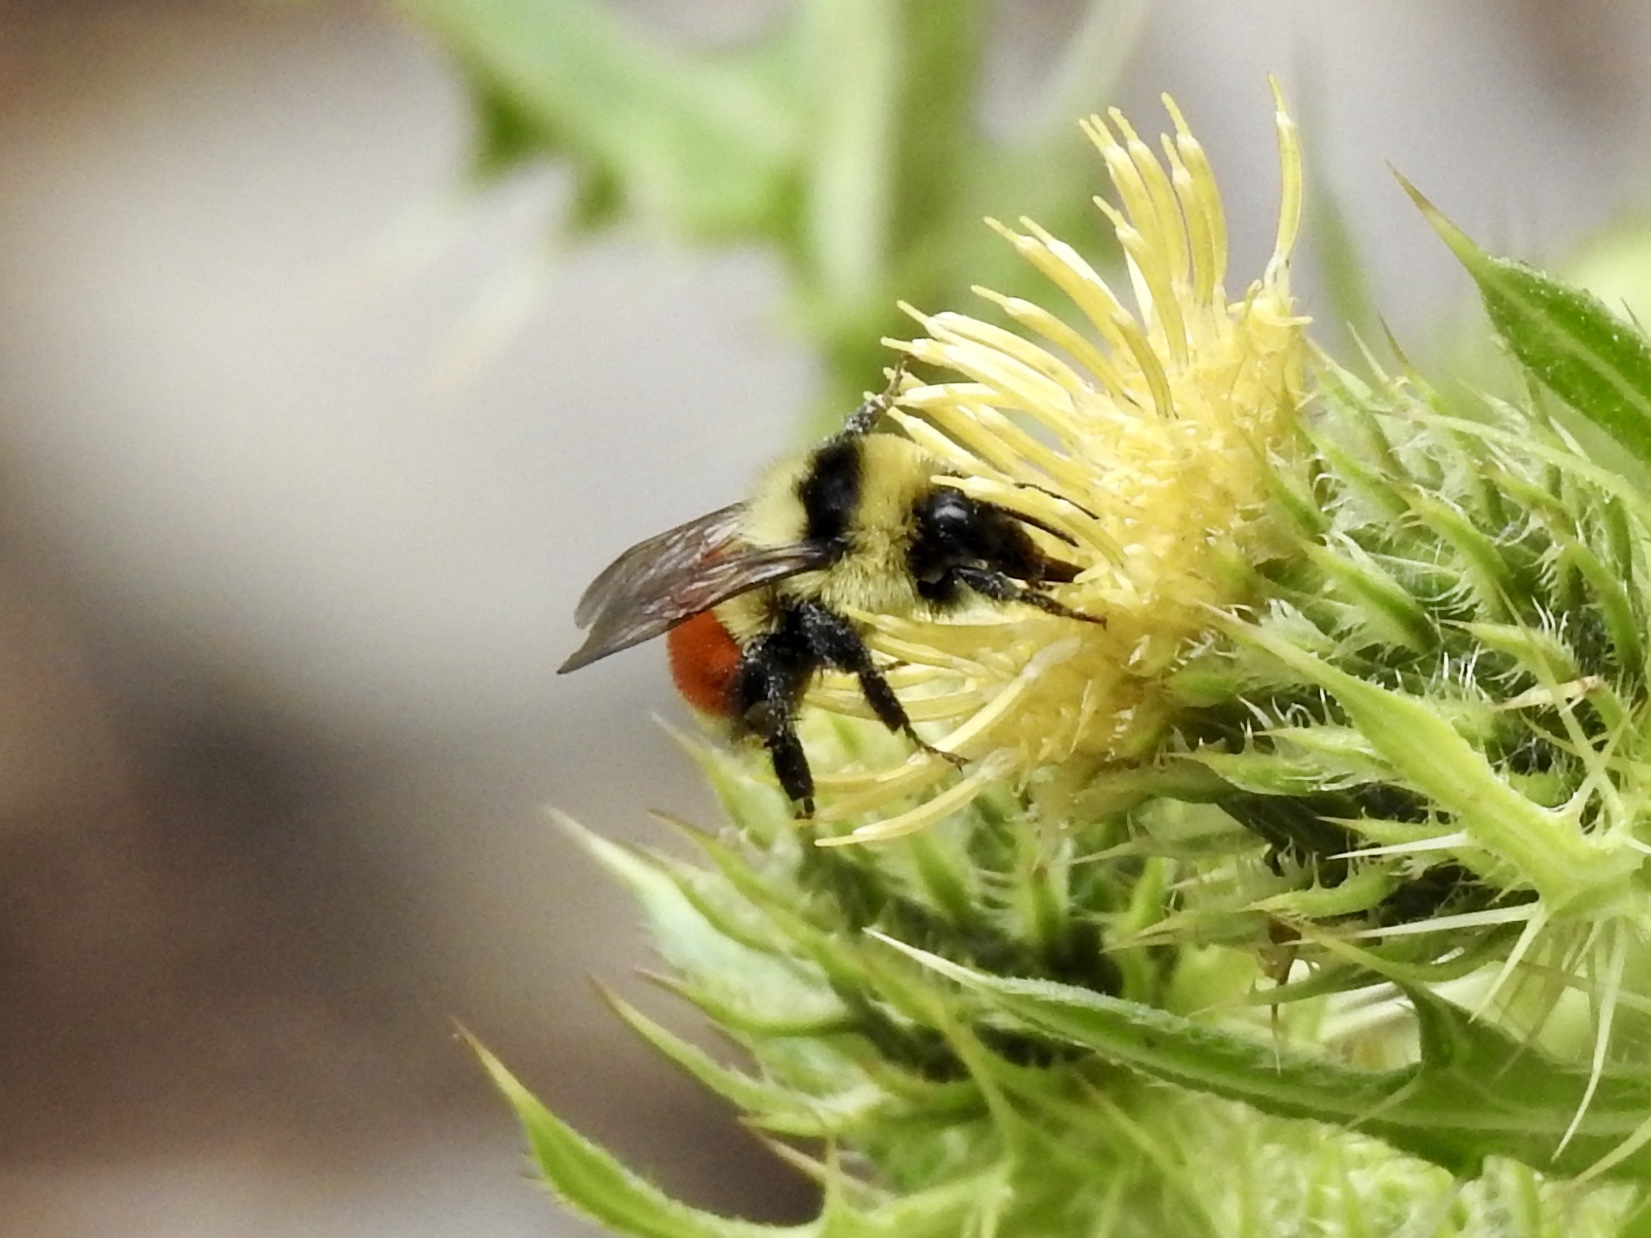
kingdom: Animalia
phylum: Arthropoda
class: Insecta
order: Hymenoptera
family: Apidae
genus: Bombus
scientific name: Bombus huntii
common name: Hunt bumble bee
